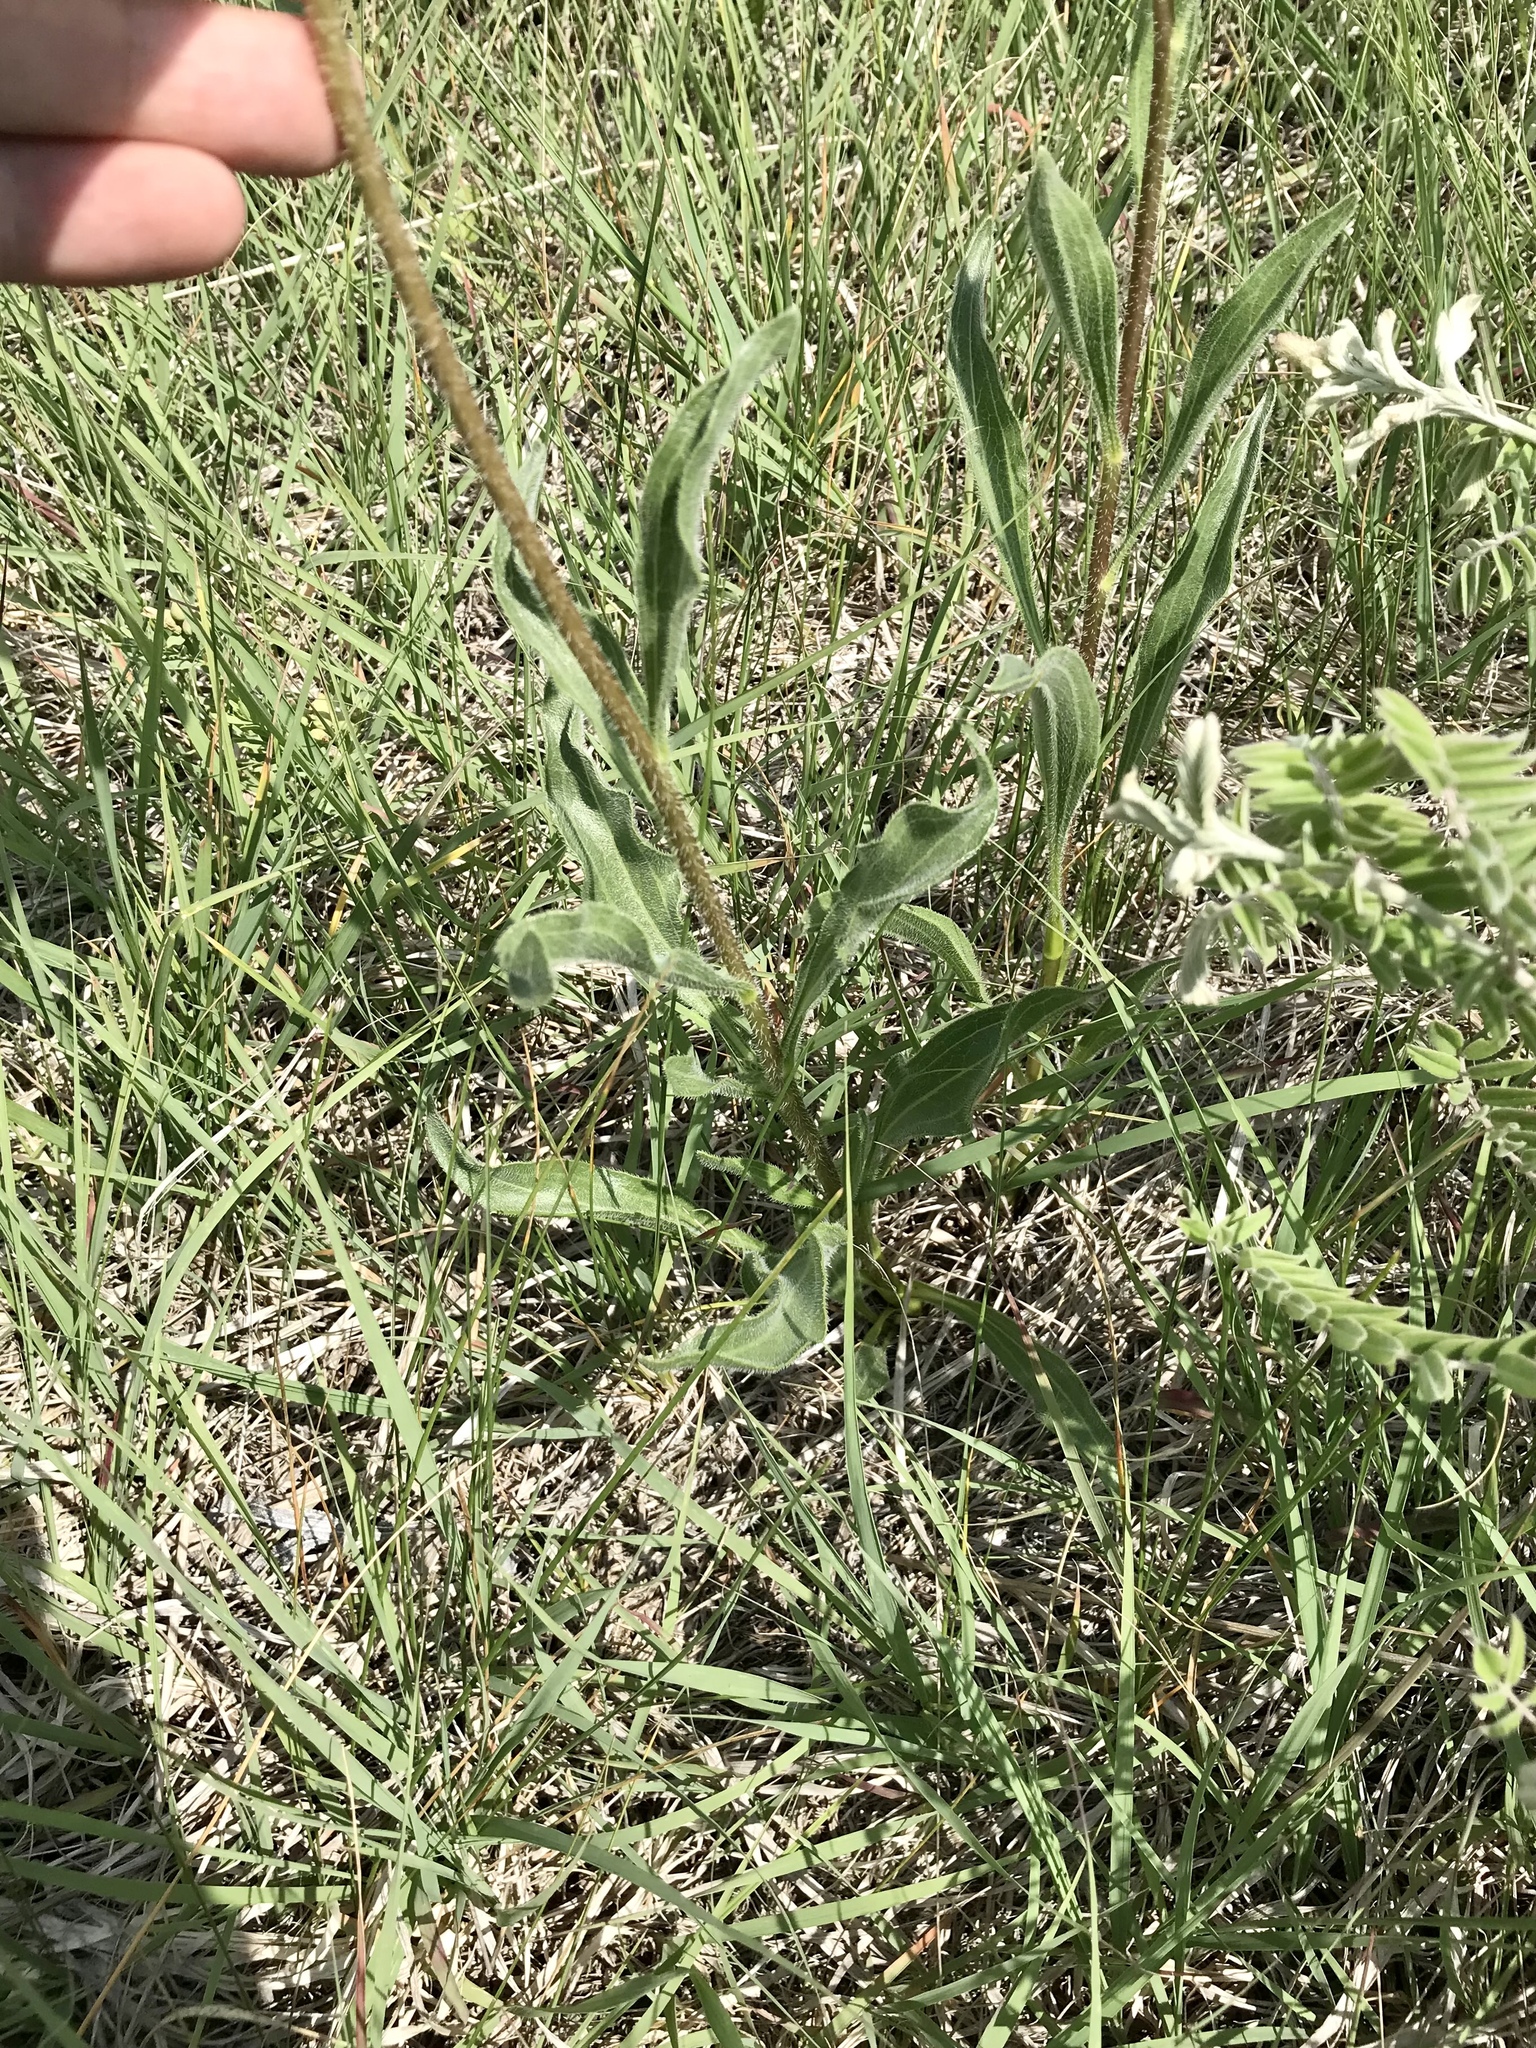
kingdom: Plantae
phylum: Tracheophyta
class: Magnoliopsida
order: Asterales
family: Asteraceae
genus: Echinacea
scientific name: Echinacea angustifolia
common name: Black-sampson echinacea
